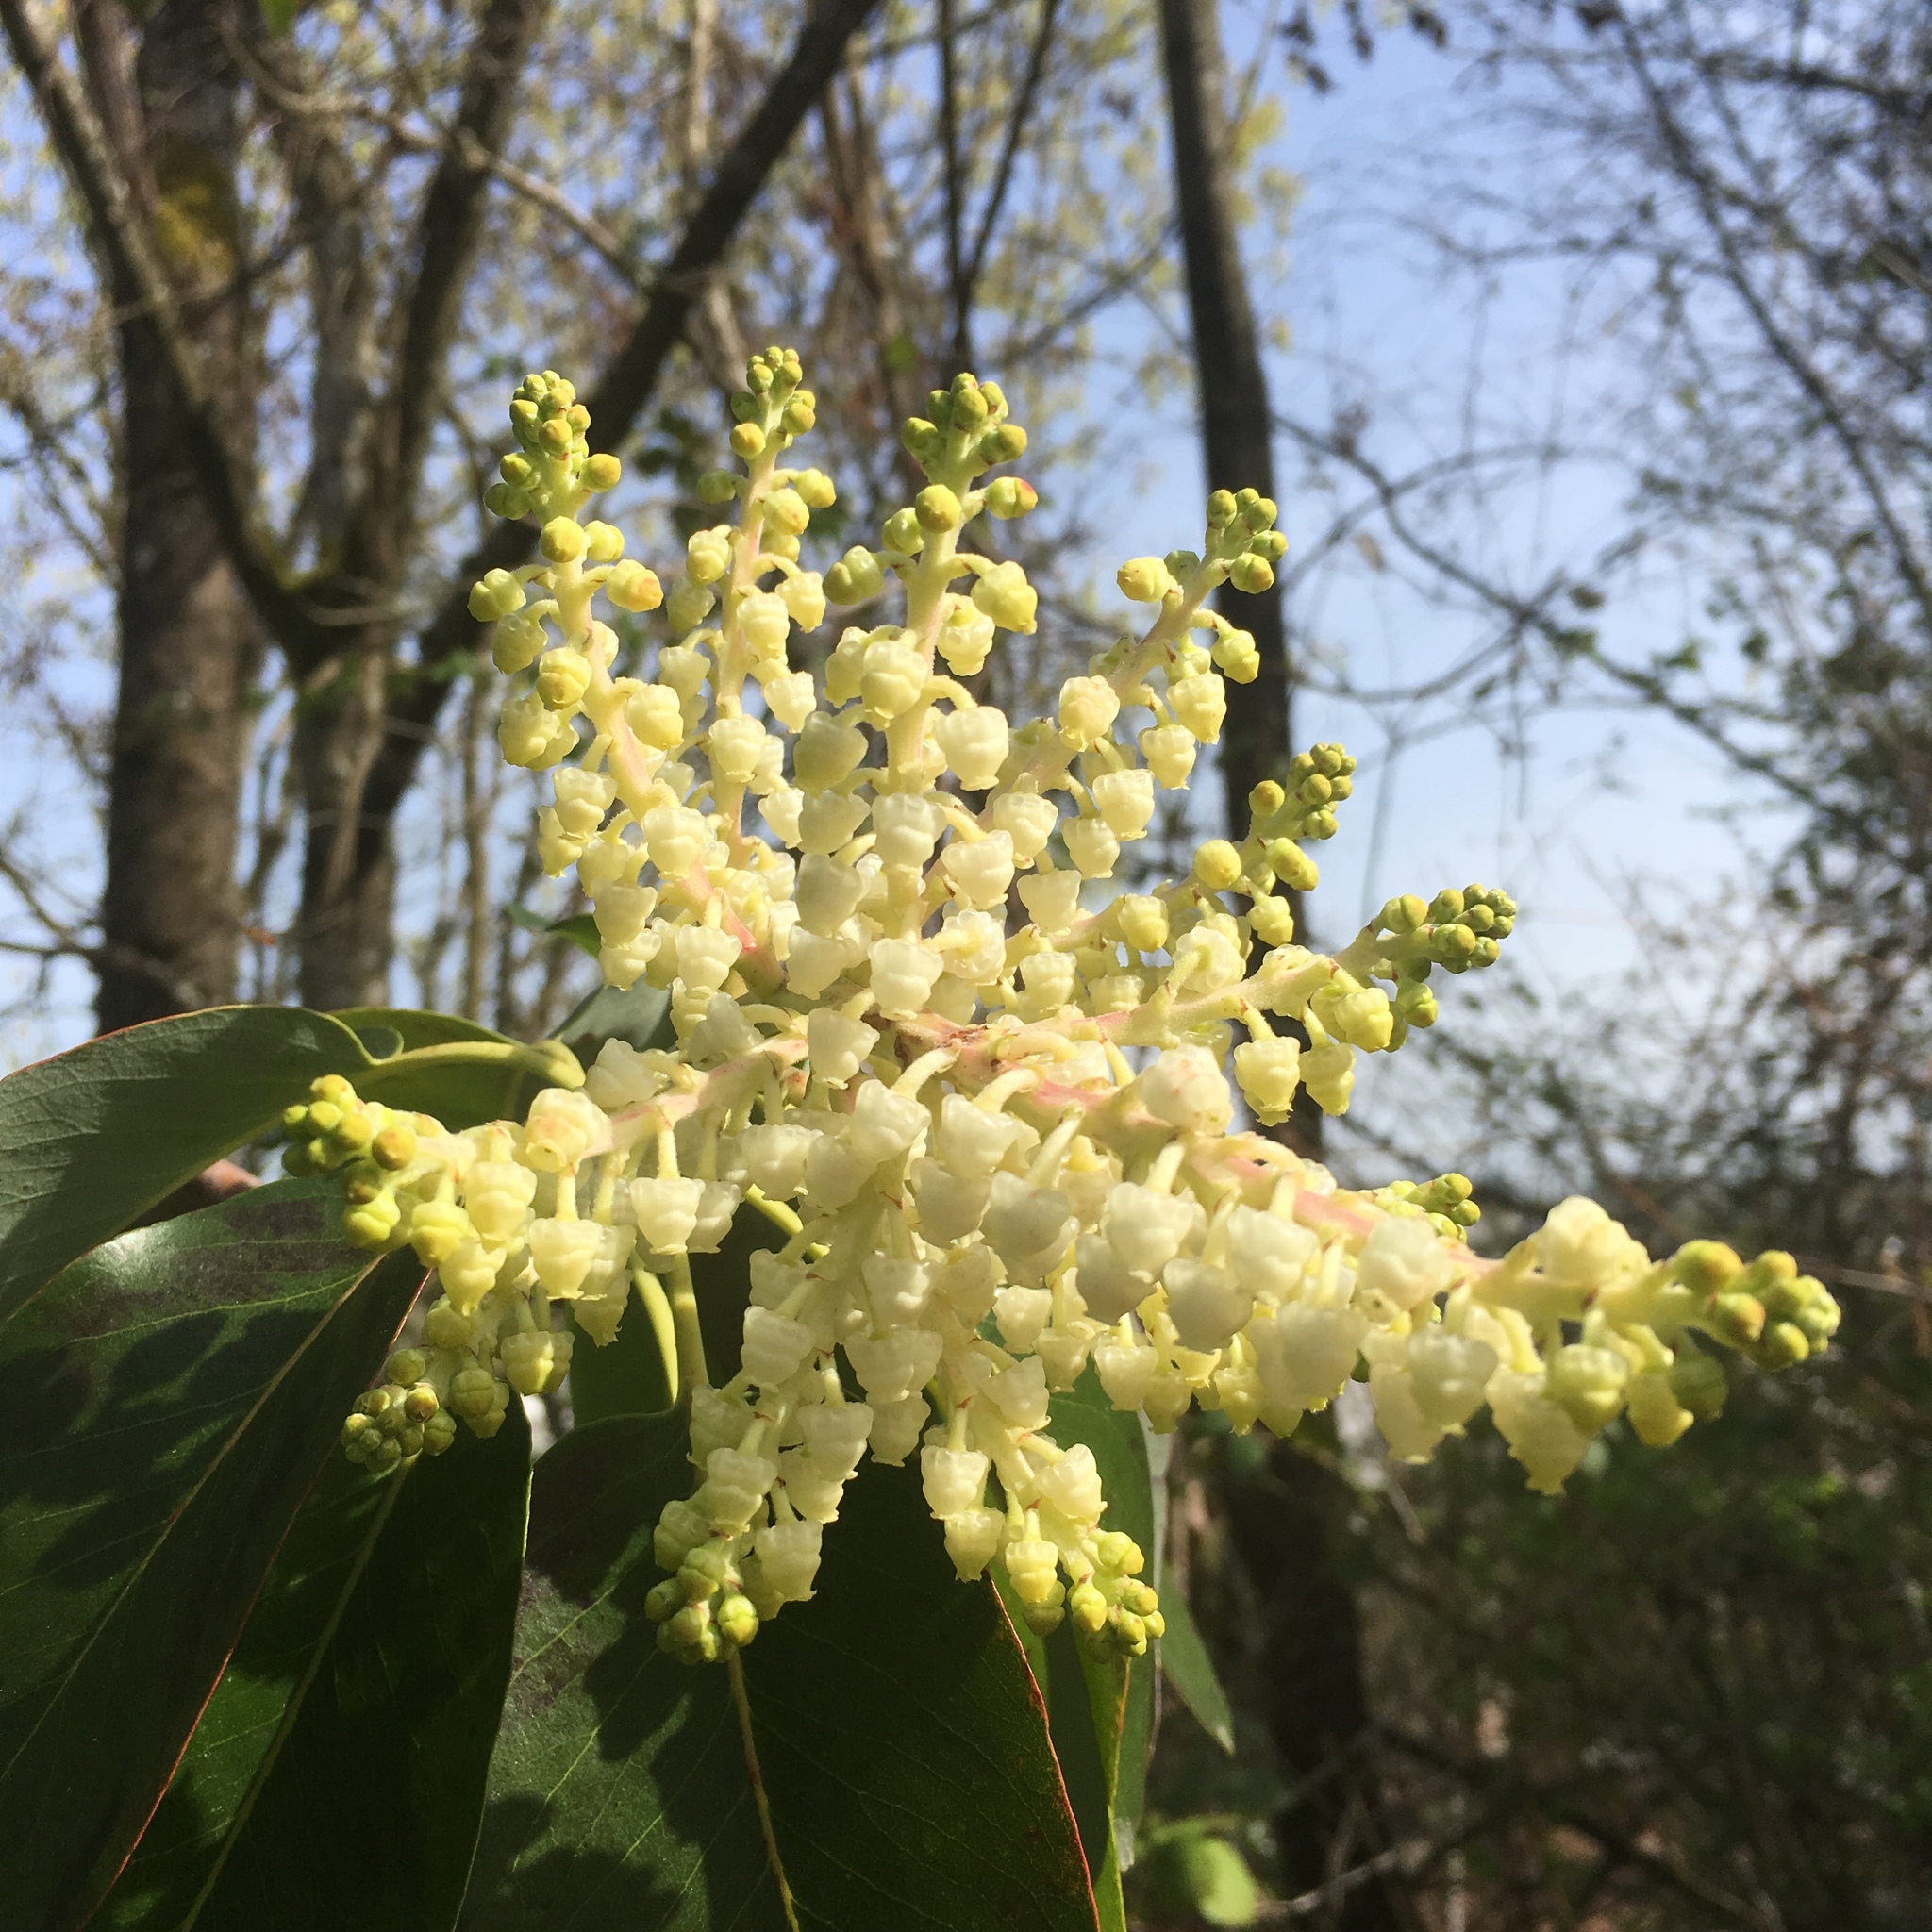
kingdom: Plantae
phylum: Tracheophyta
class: Magnoliopsida
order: Ericales
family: Ericaceae
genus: Arbutus
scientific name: Arbutus menziesii
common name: Pacific madrone
